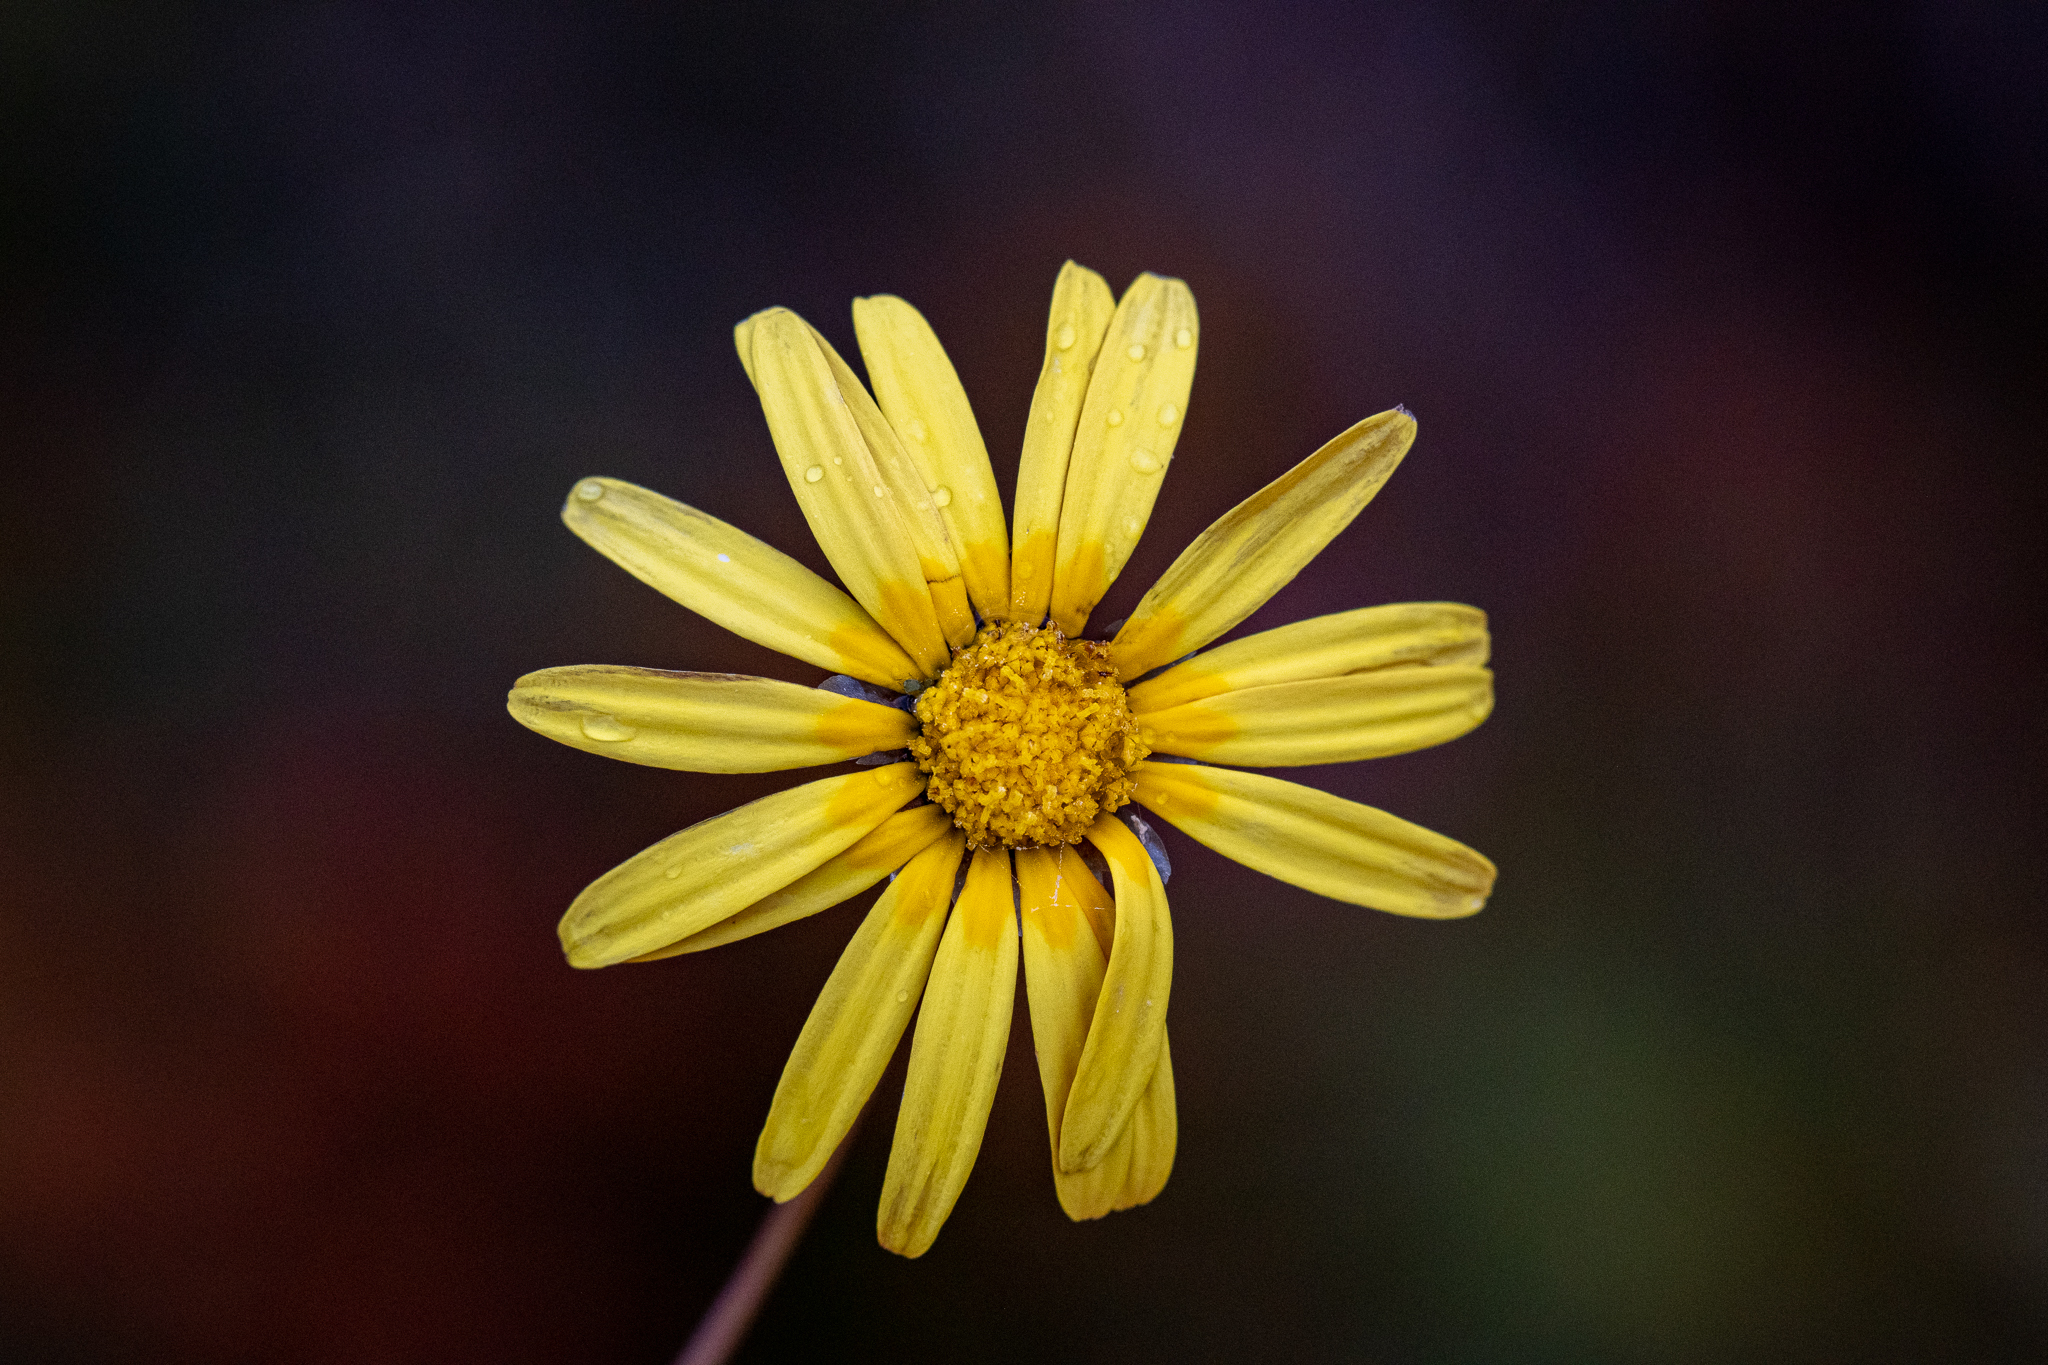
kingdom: Plantae
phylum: Tracheophyta
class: Magnoliopsida
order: Asterales
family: Asteraceae
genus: Ursinia
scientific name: Ursinia dentata
